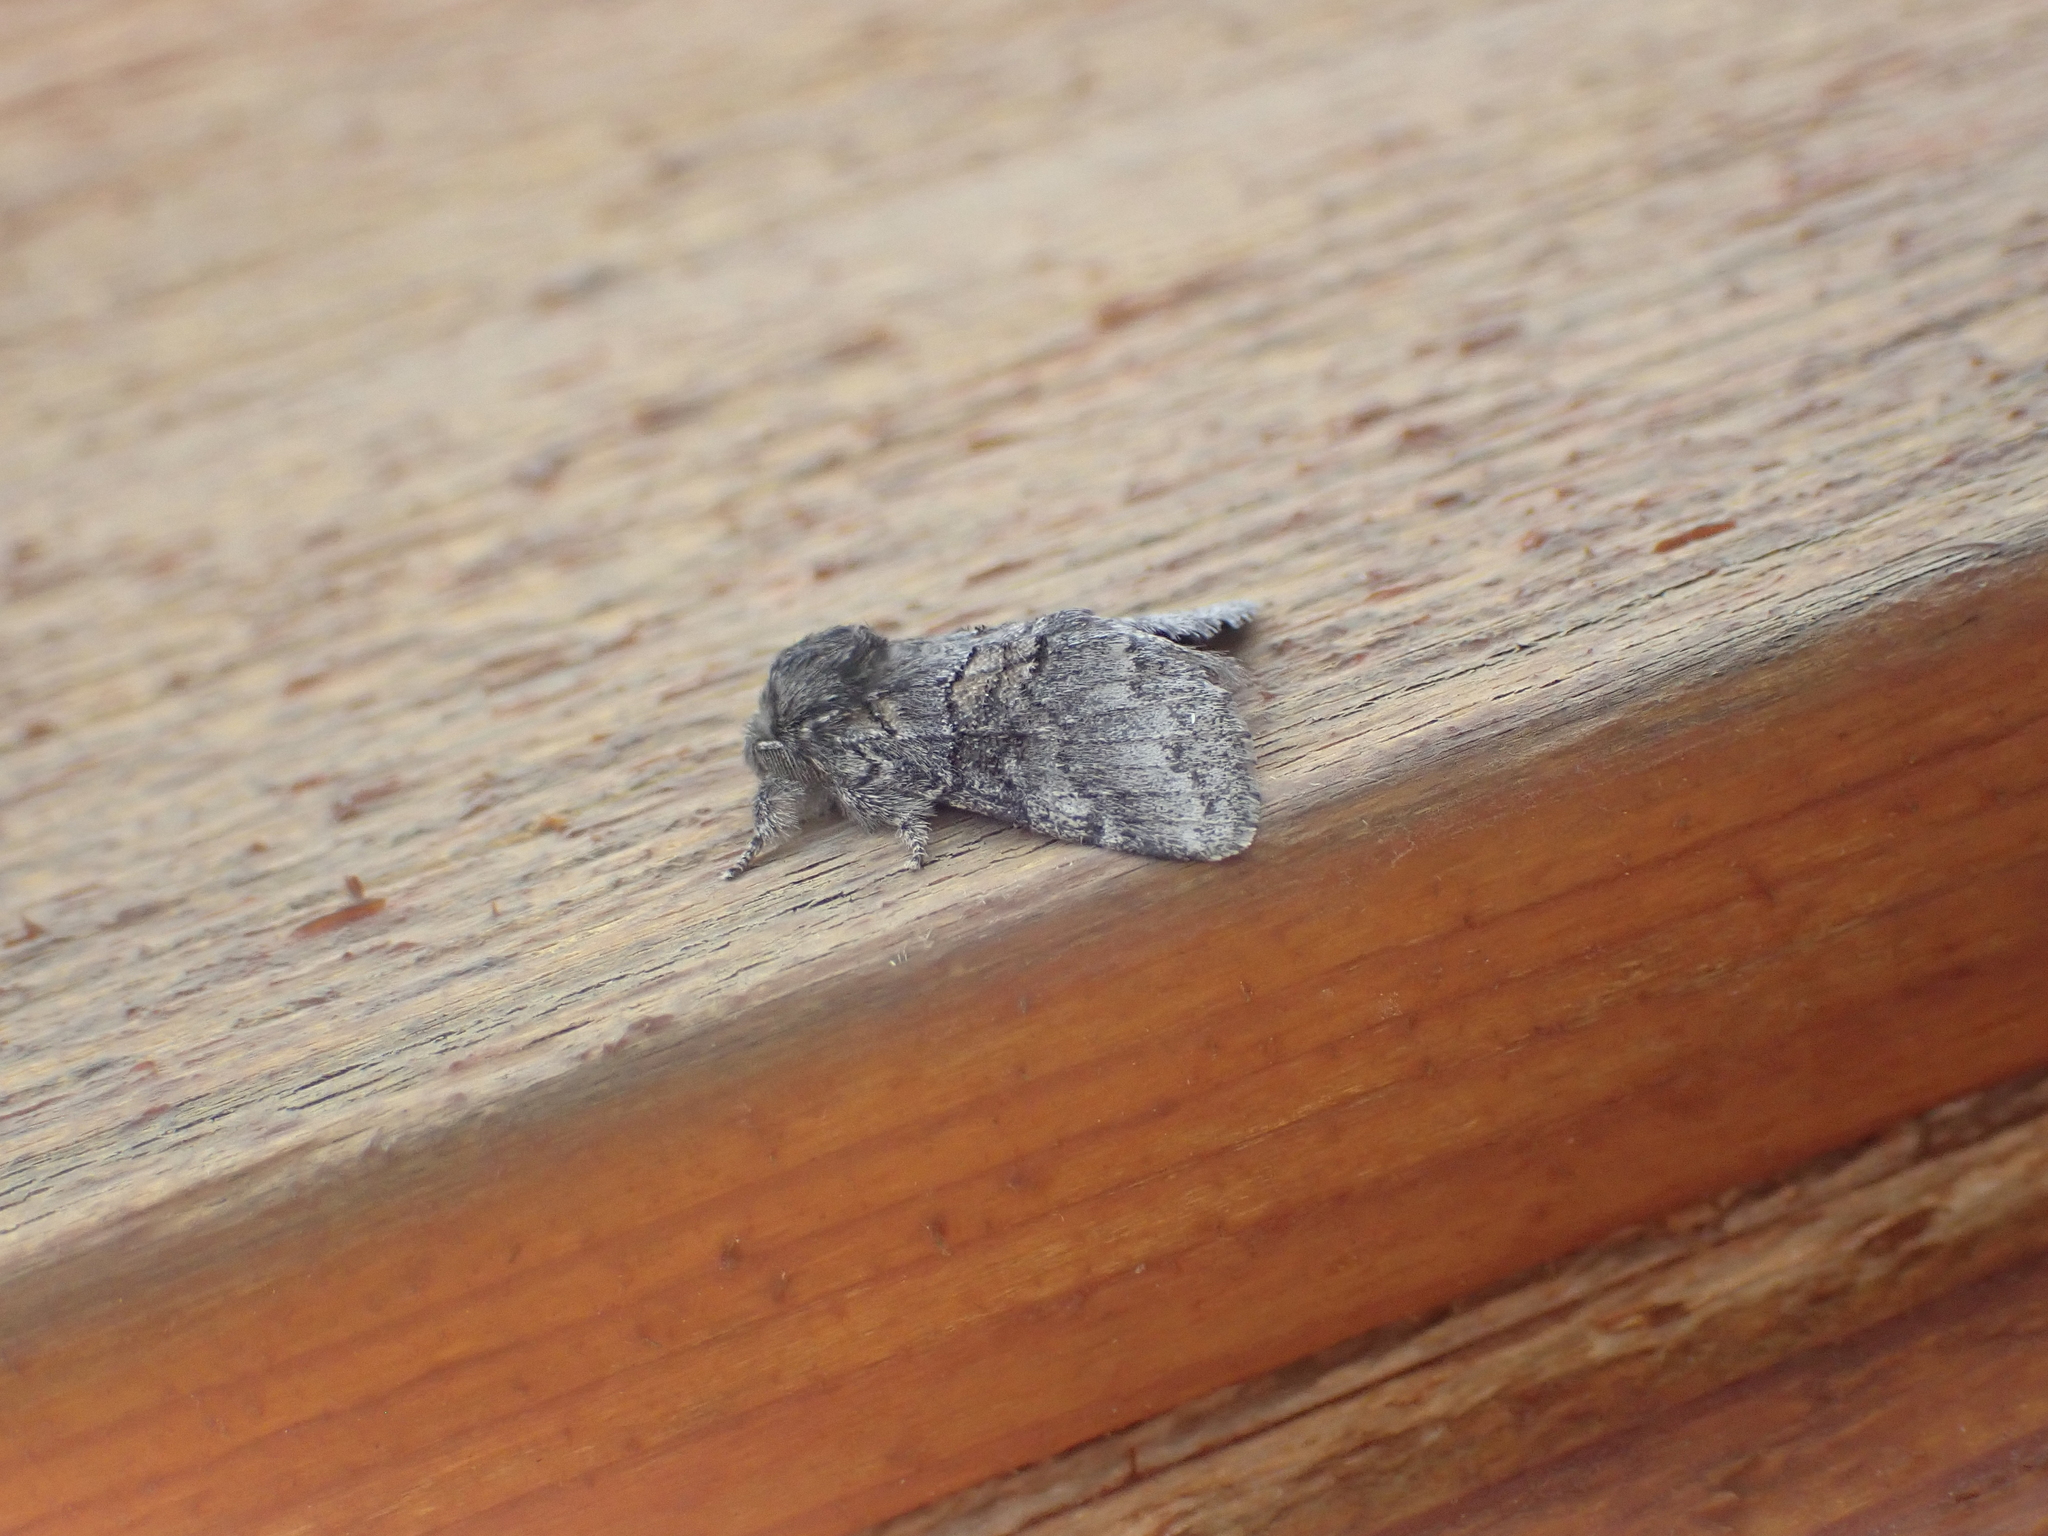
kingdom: Animalia
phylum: Arthropoda
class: Insecta
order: Lepidoptera
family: Notodontidae
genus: Gluphisia
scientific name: Gluphisia septentrionis
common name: Common gluphisia
